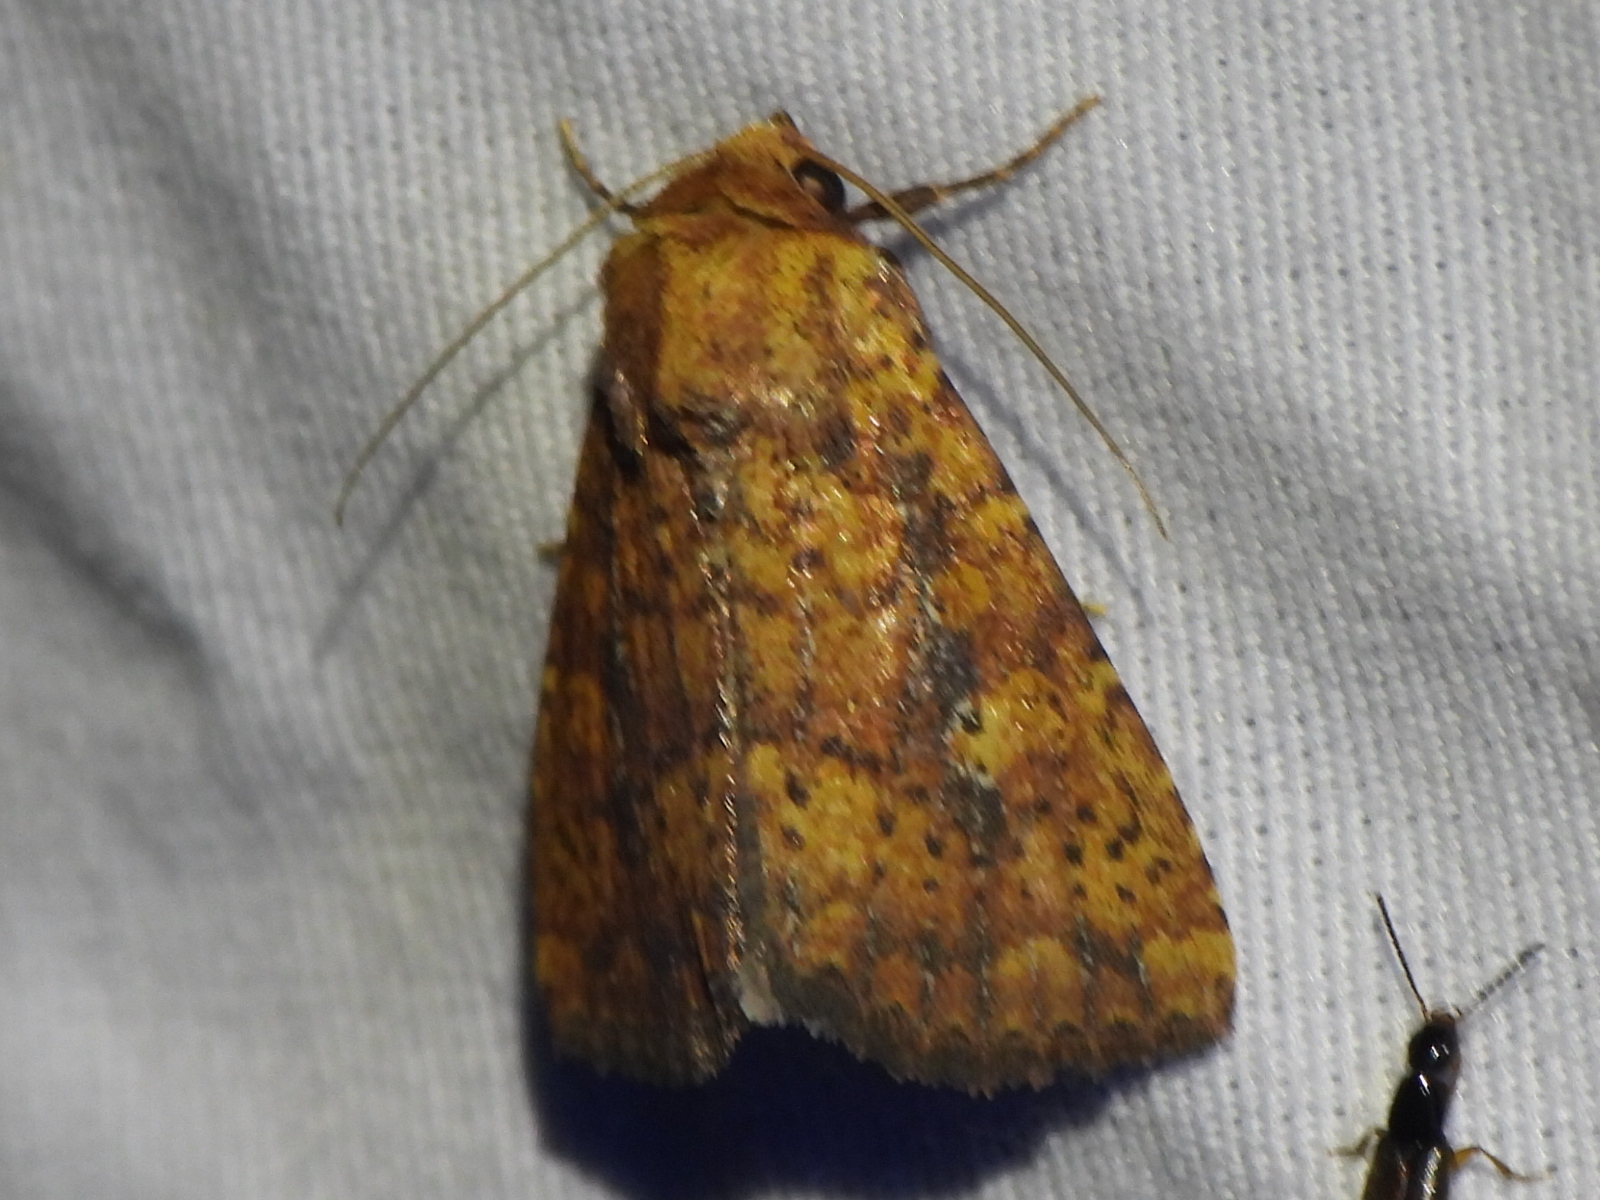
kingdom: Animalia
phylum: Arthropoda
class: Insecta
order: Lepidoptera
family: Noctuidae
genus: Perigea
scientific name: Perigea xanthioides
